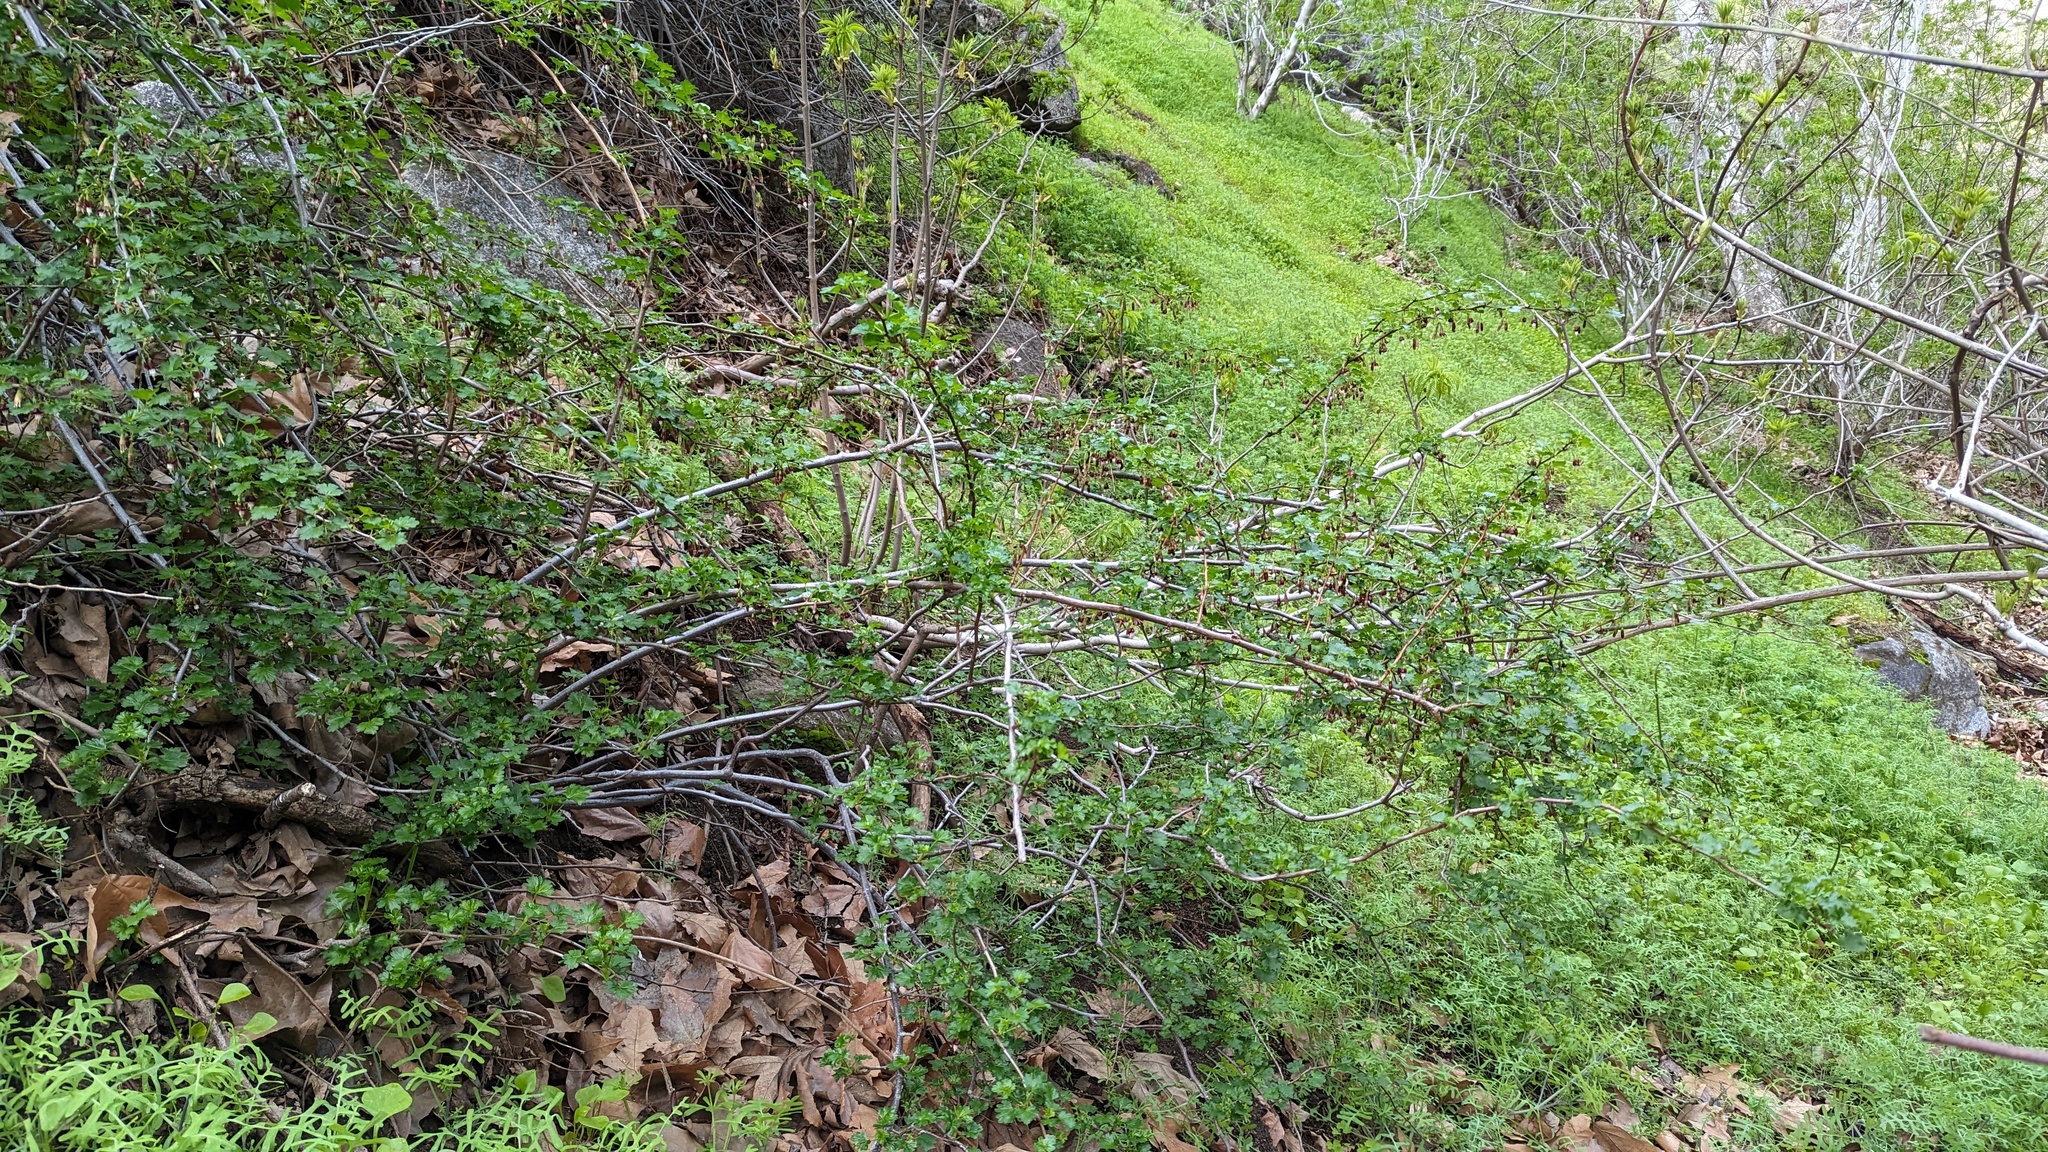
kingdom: Plantae
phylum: Tracheophyta
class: Magnoliopsida
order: Saxifragales
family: Grossulariaceae
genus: Ribes
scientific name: Ribes roezlii
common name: Sierra gooseberry
